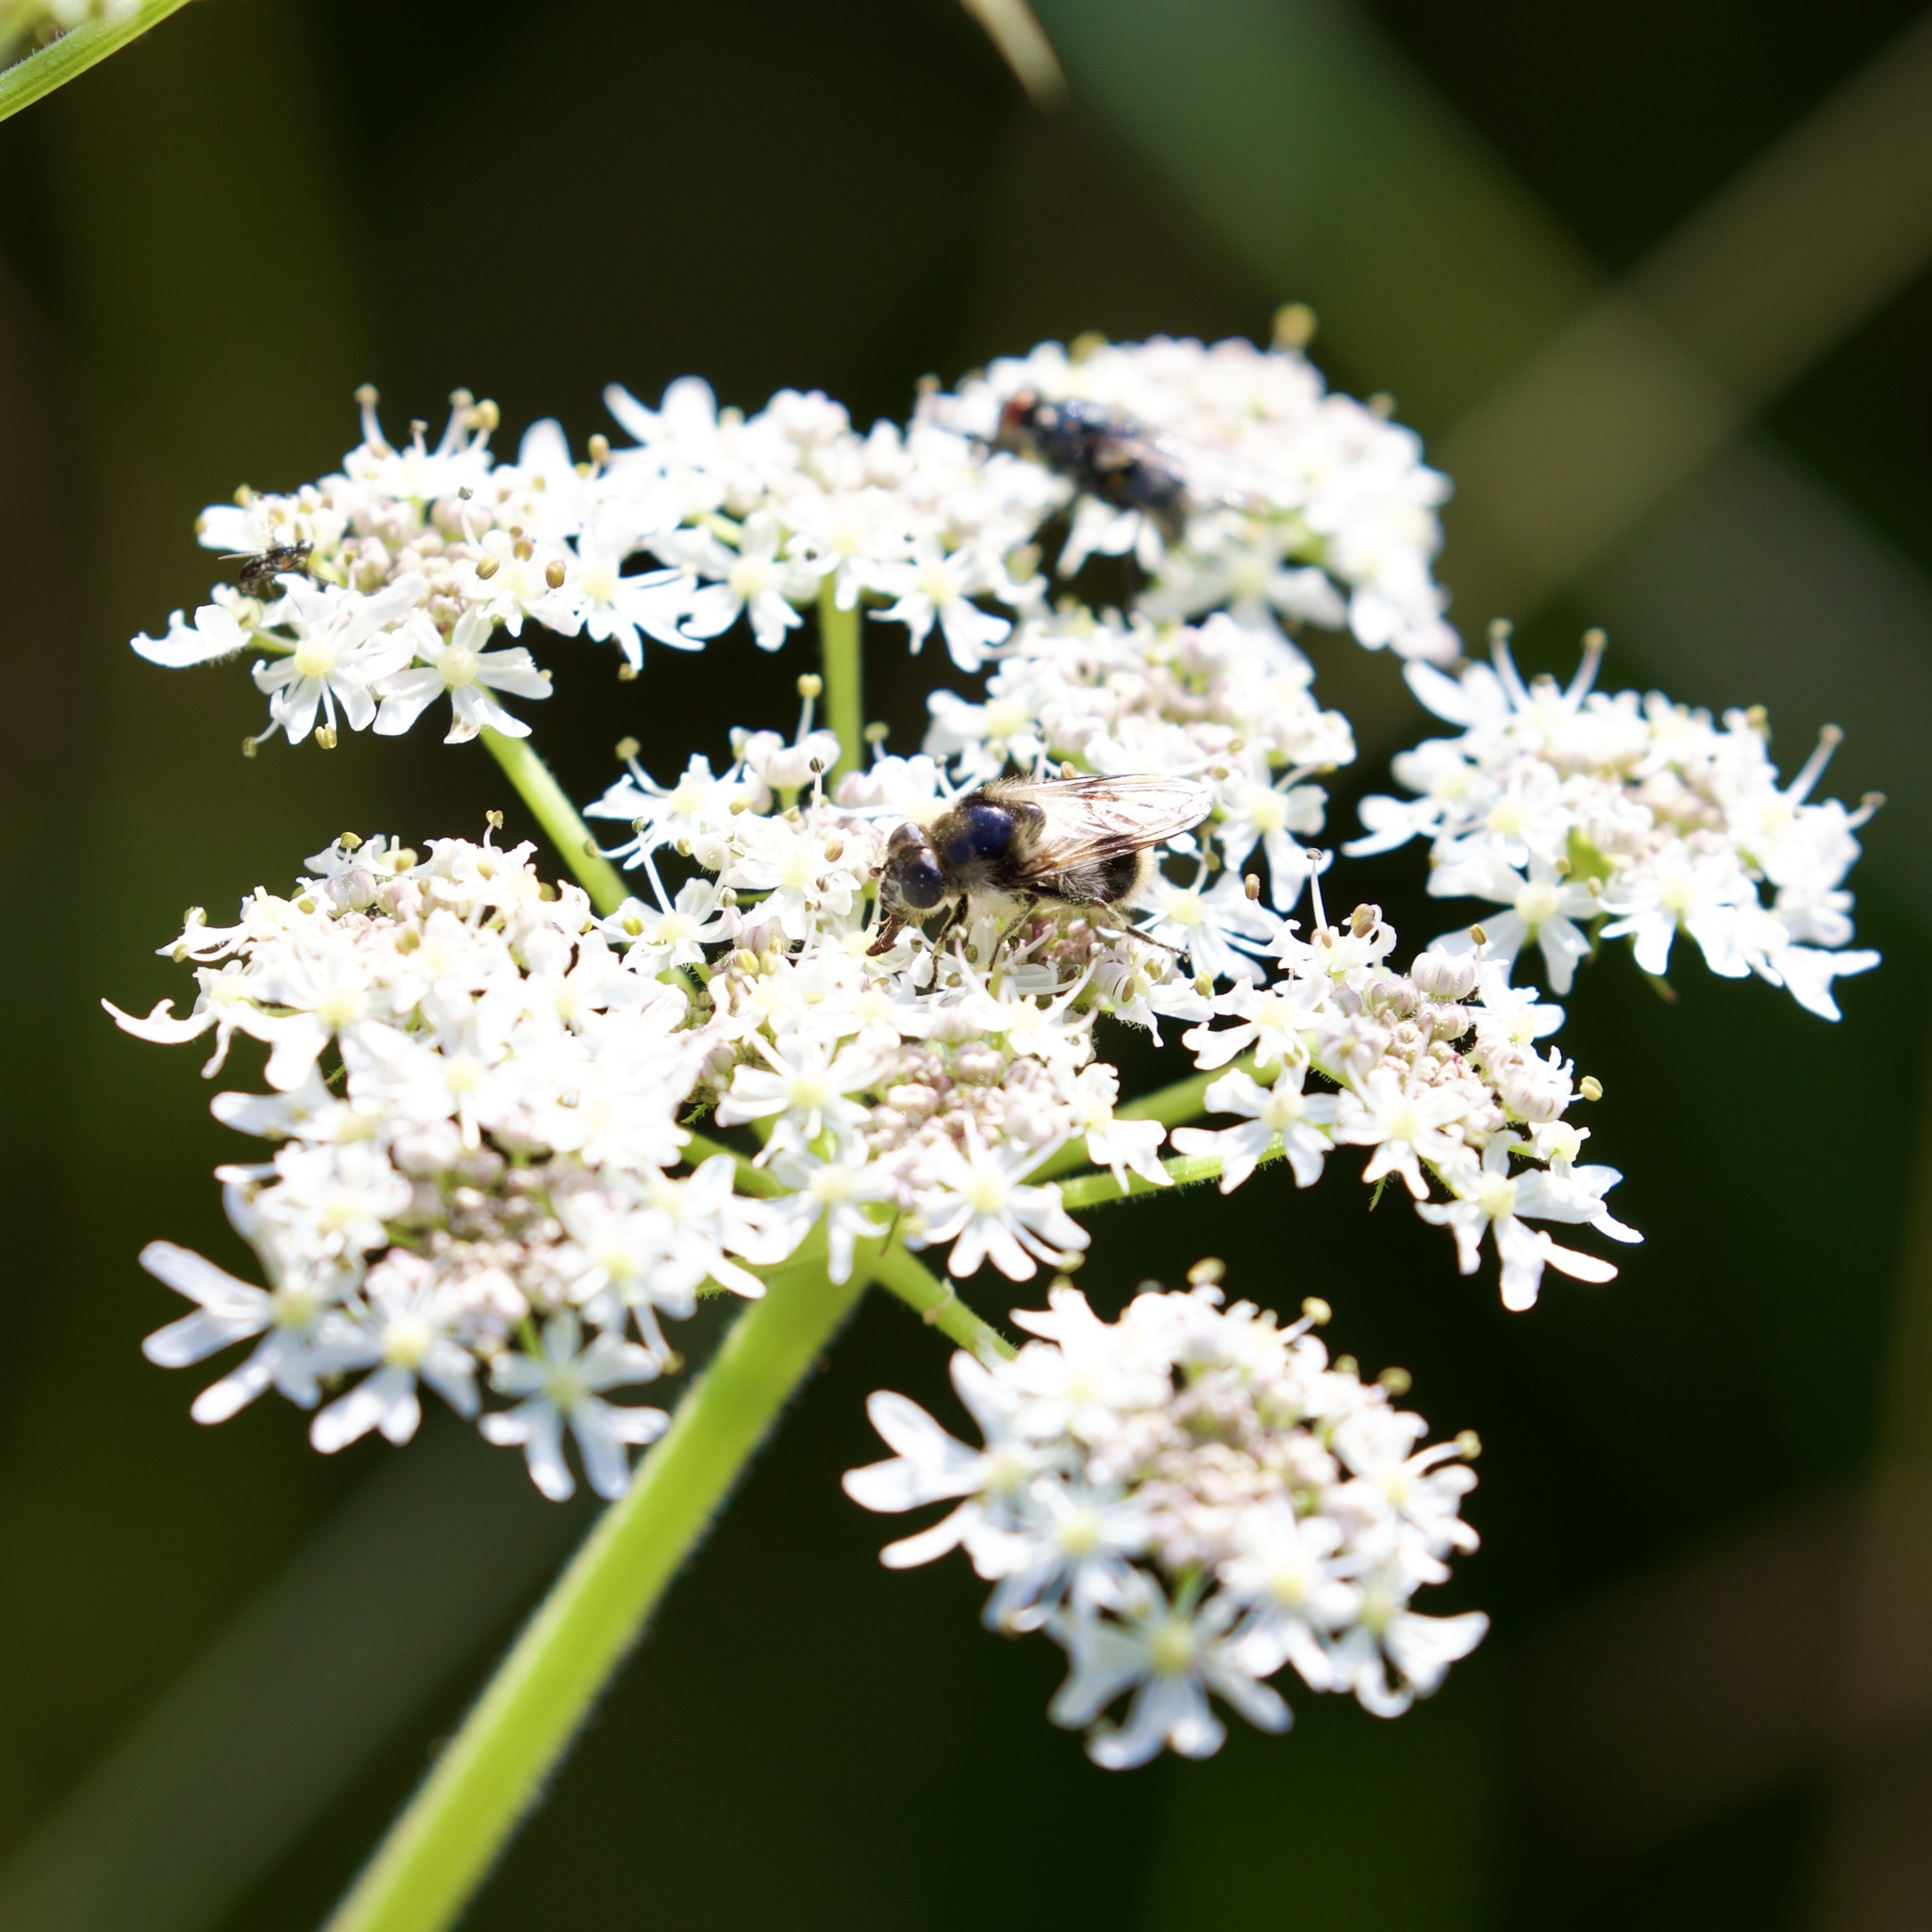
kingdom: Animalia
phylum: Arthropoda
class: Insecta
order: Diptera
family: Syrphidae
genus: Cheilosia
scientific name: Cheilosia illustrata
